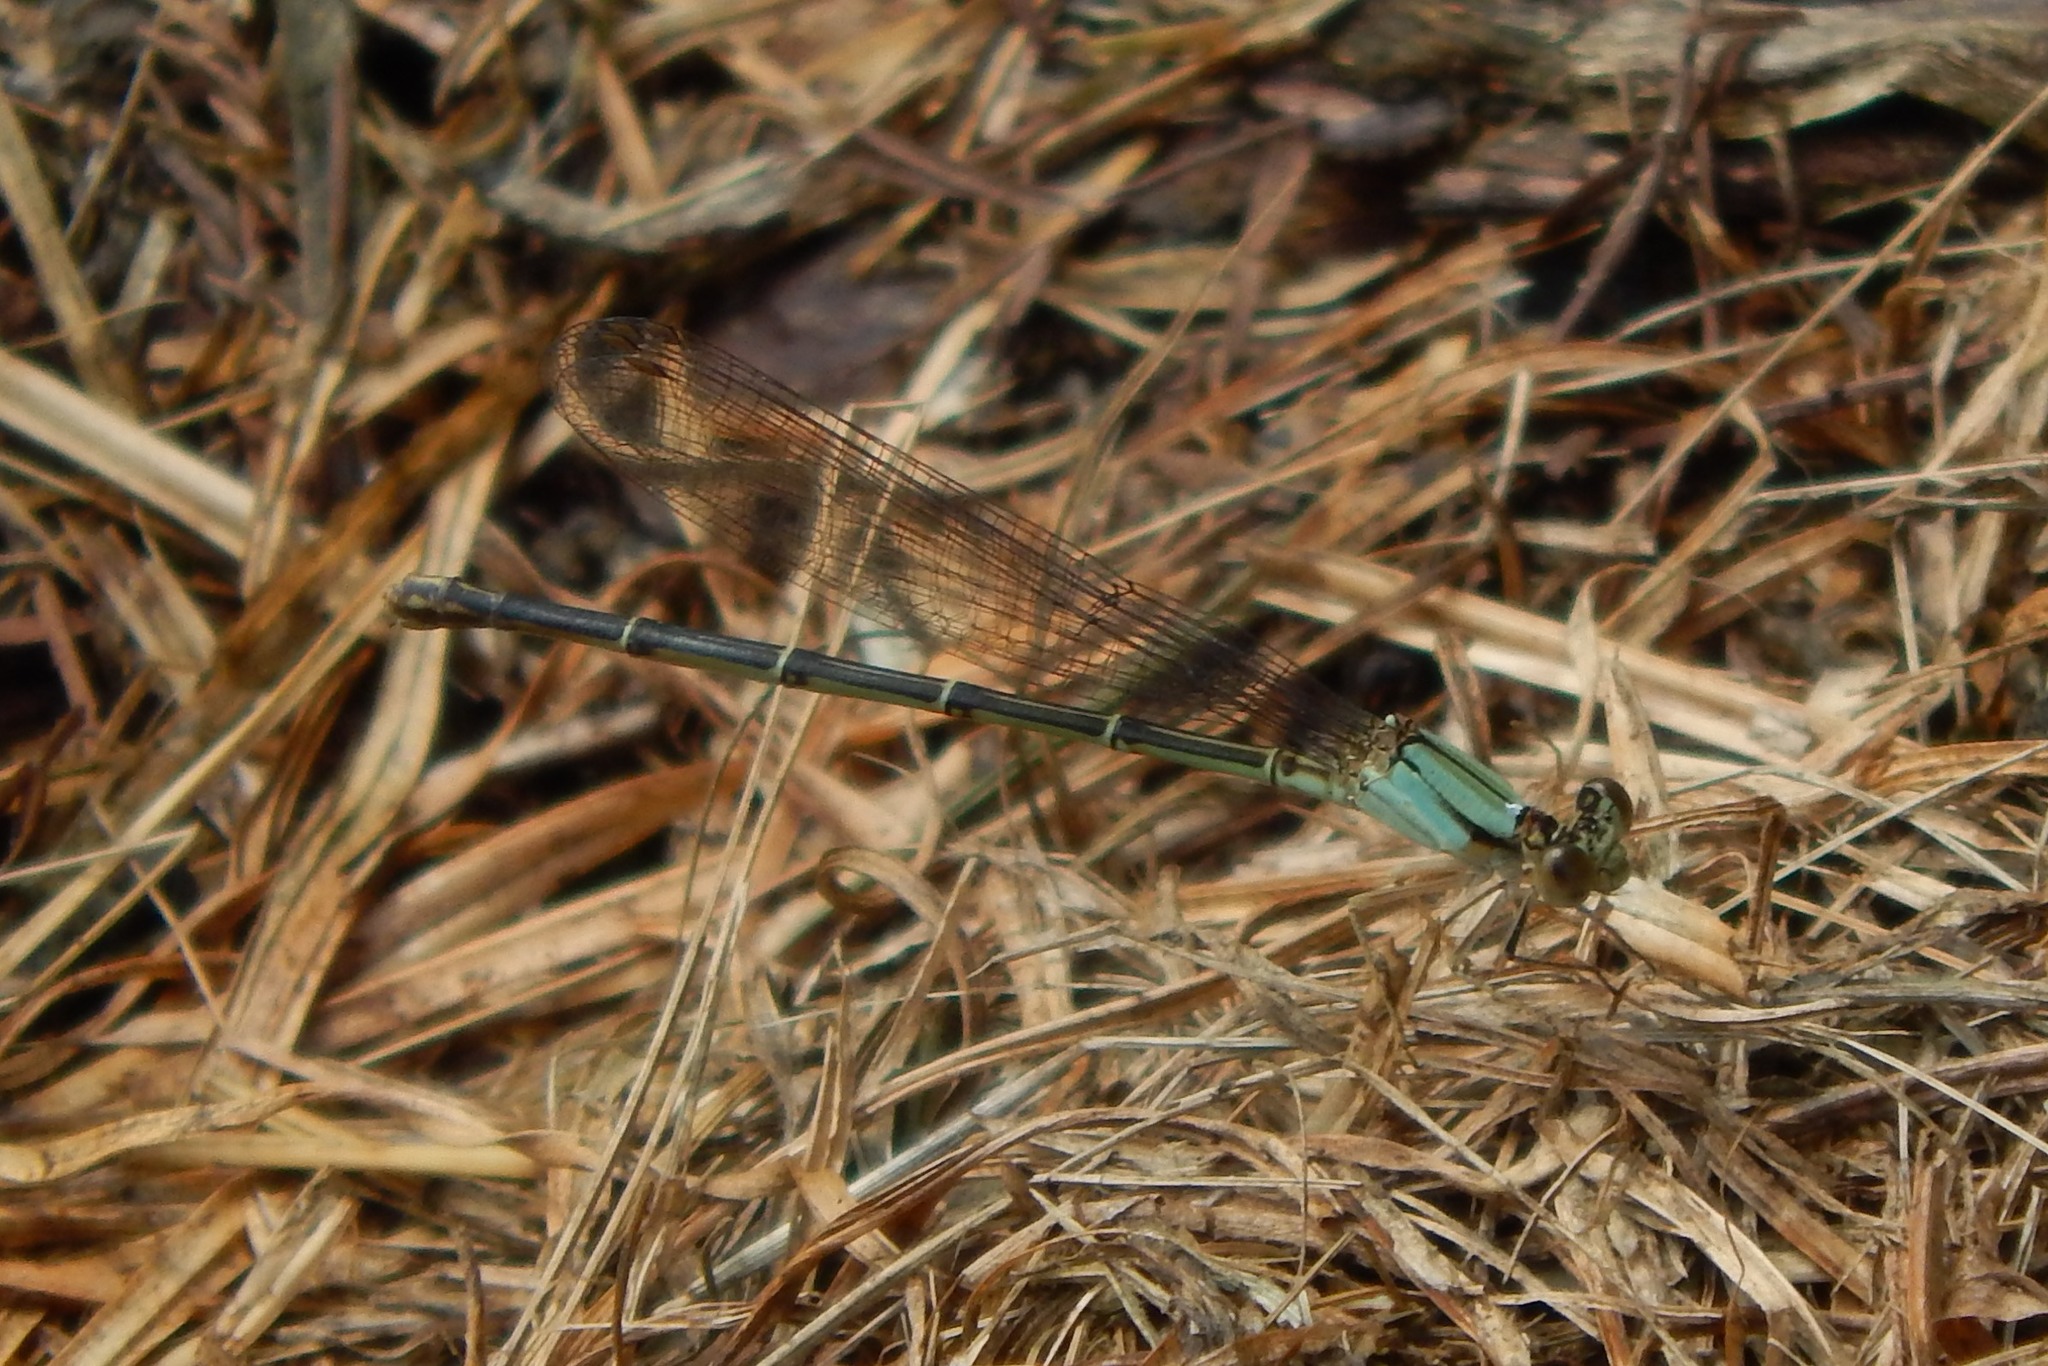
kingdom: Animalia
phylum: Arthropoda
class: Insecta
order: Odonata
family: Coenagrionidae
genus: Argia
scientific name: Argia apicalis
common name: Blue-fronted dancer
